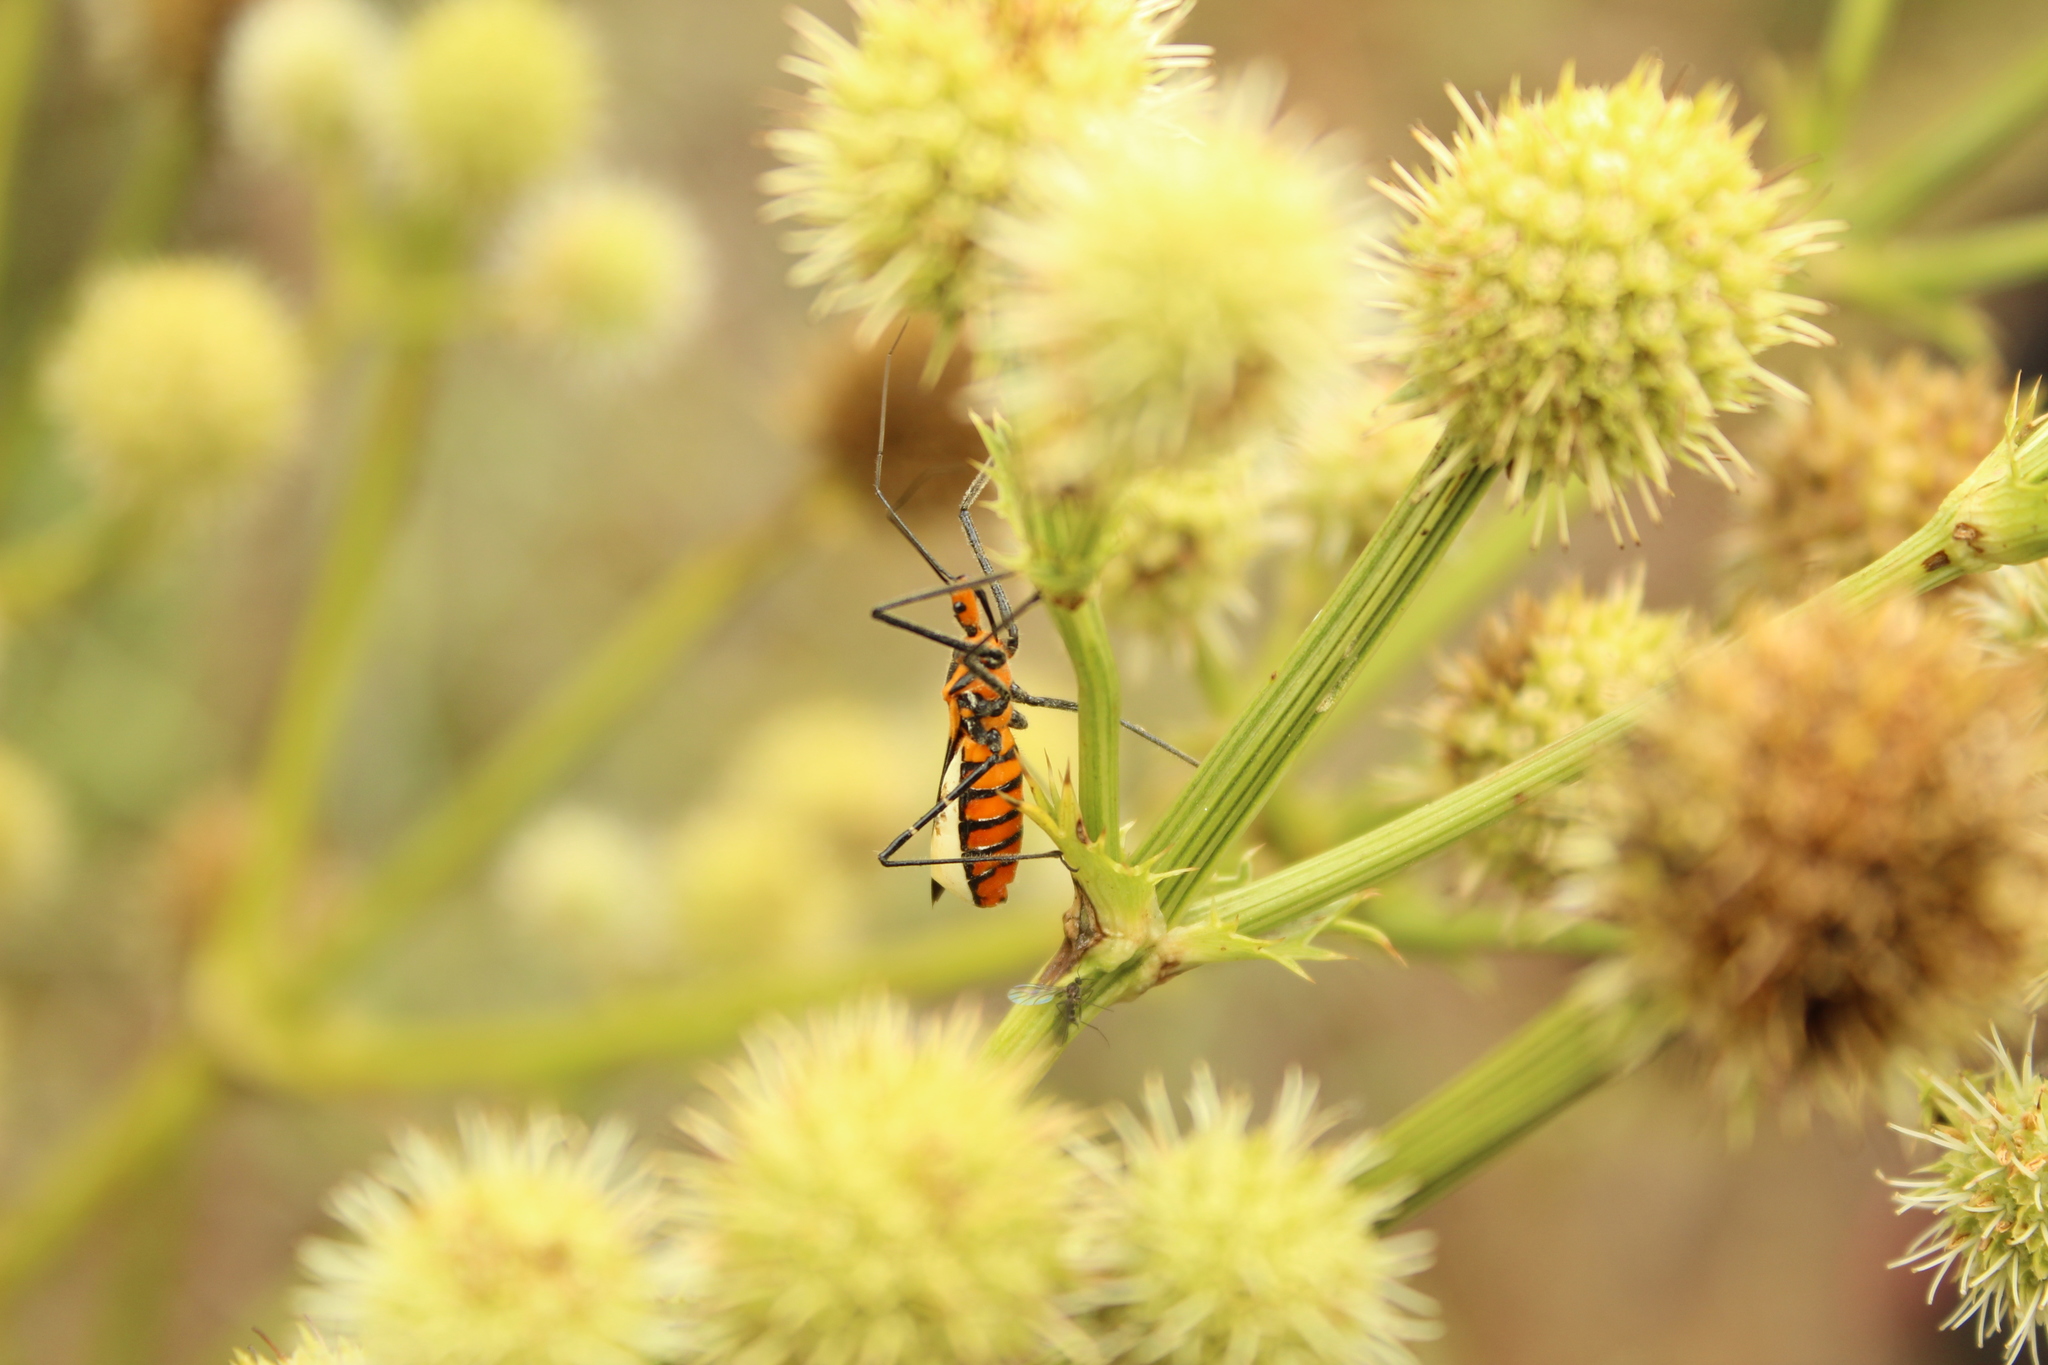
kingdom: Animalia
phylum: Arthropoda
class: Insecta
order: Hemiptera
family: Reduviidae
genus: Zelus
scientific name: Zelus longipes
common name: Milkweed assassin bug
